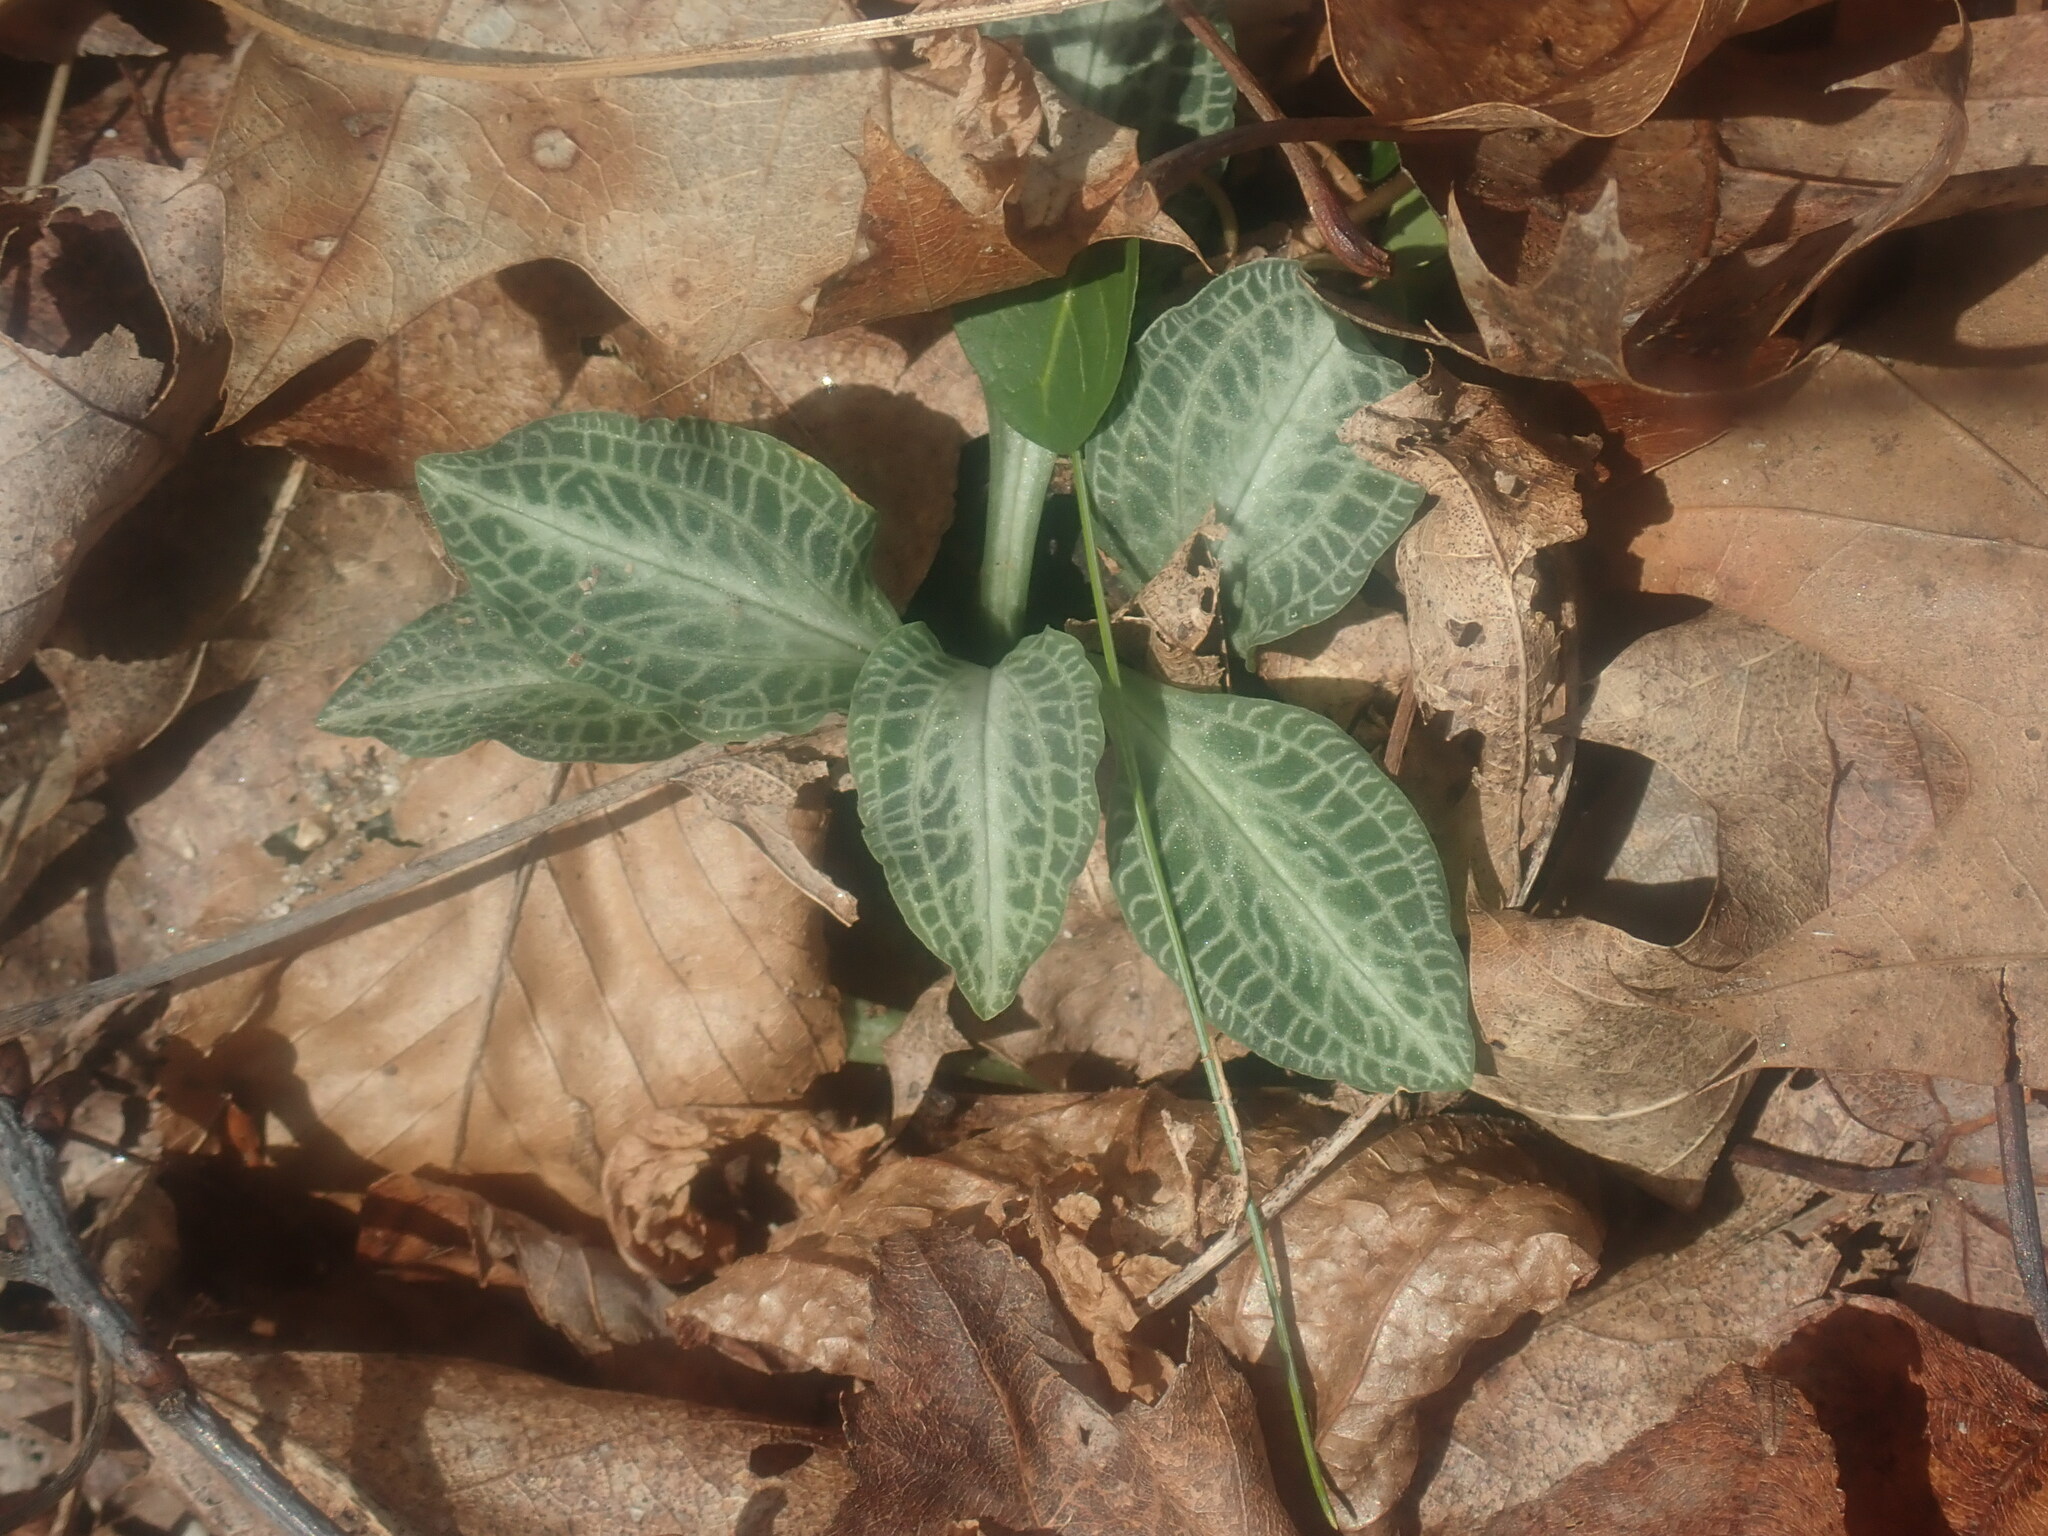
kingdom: Plantae
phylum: Tracheophyta
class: Liliopsida
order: Asparagales
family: Orchidaceae
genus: Goodyera
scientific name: Goodyera pubescens
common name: Downy rattlesnake-plantain
